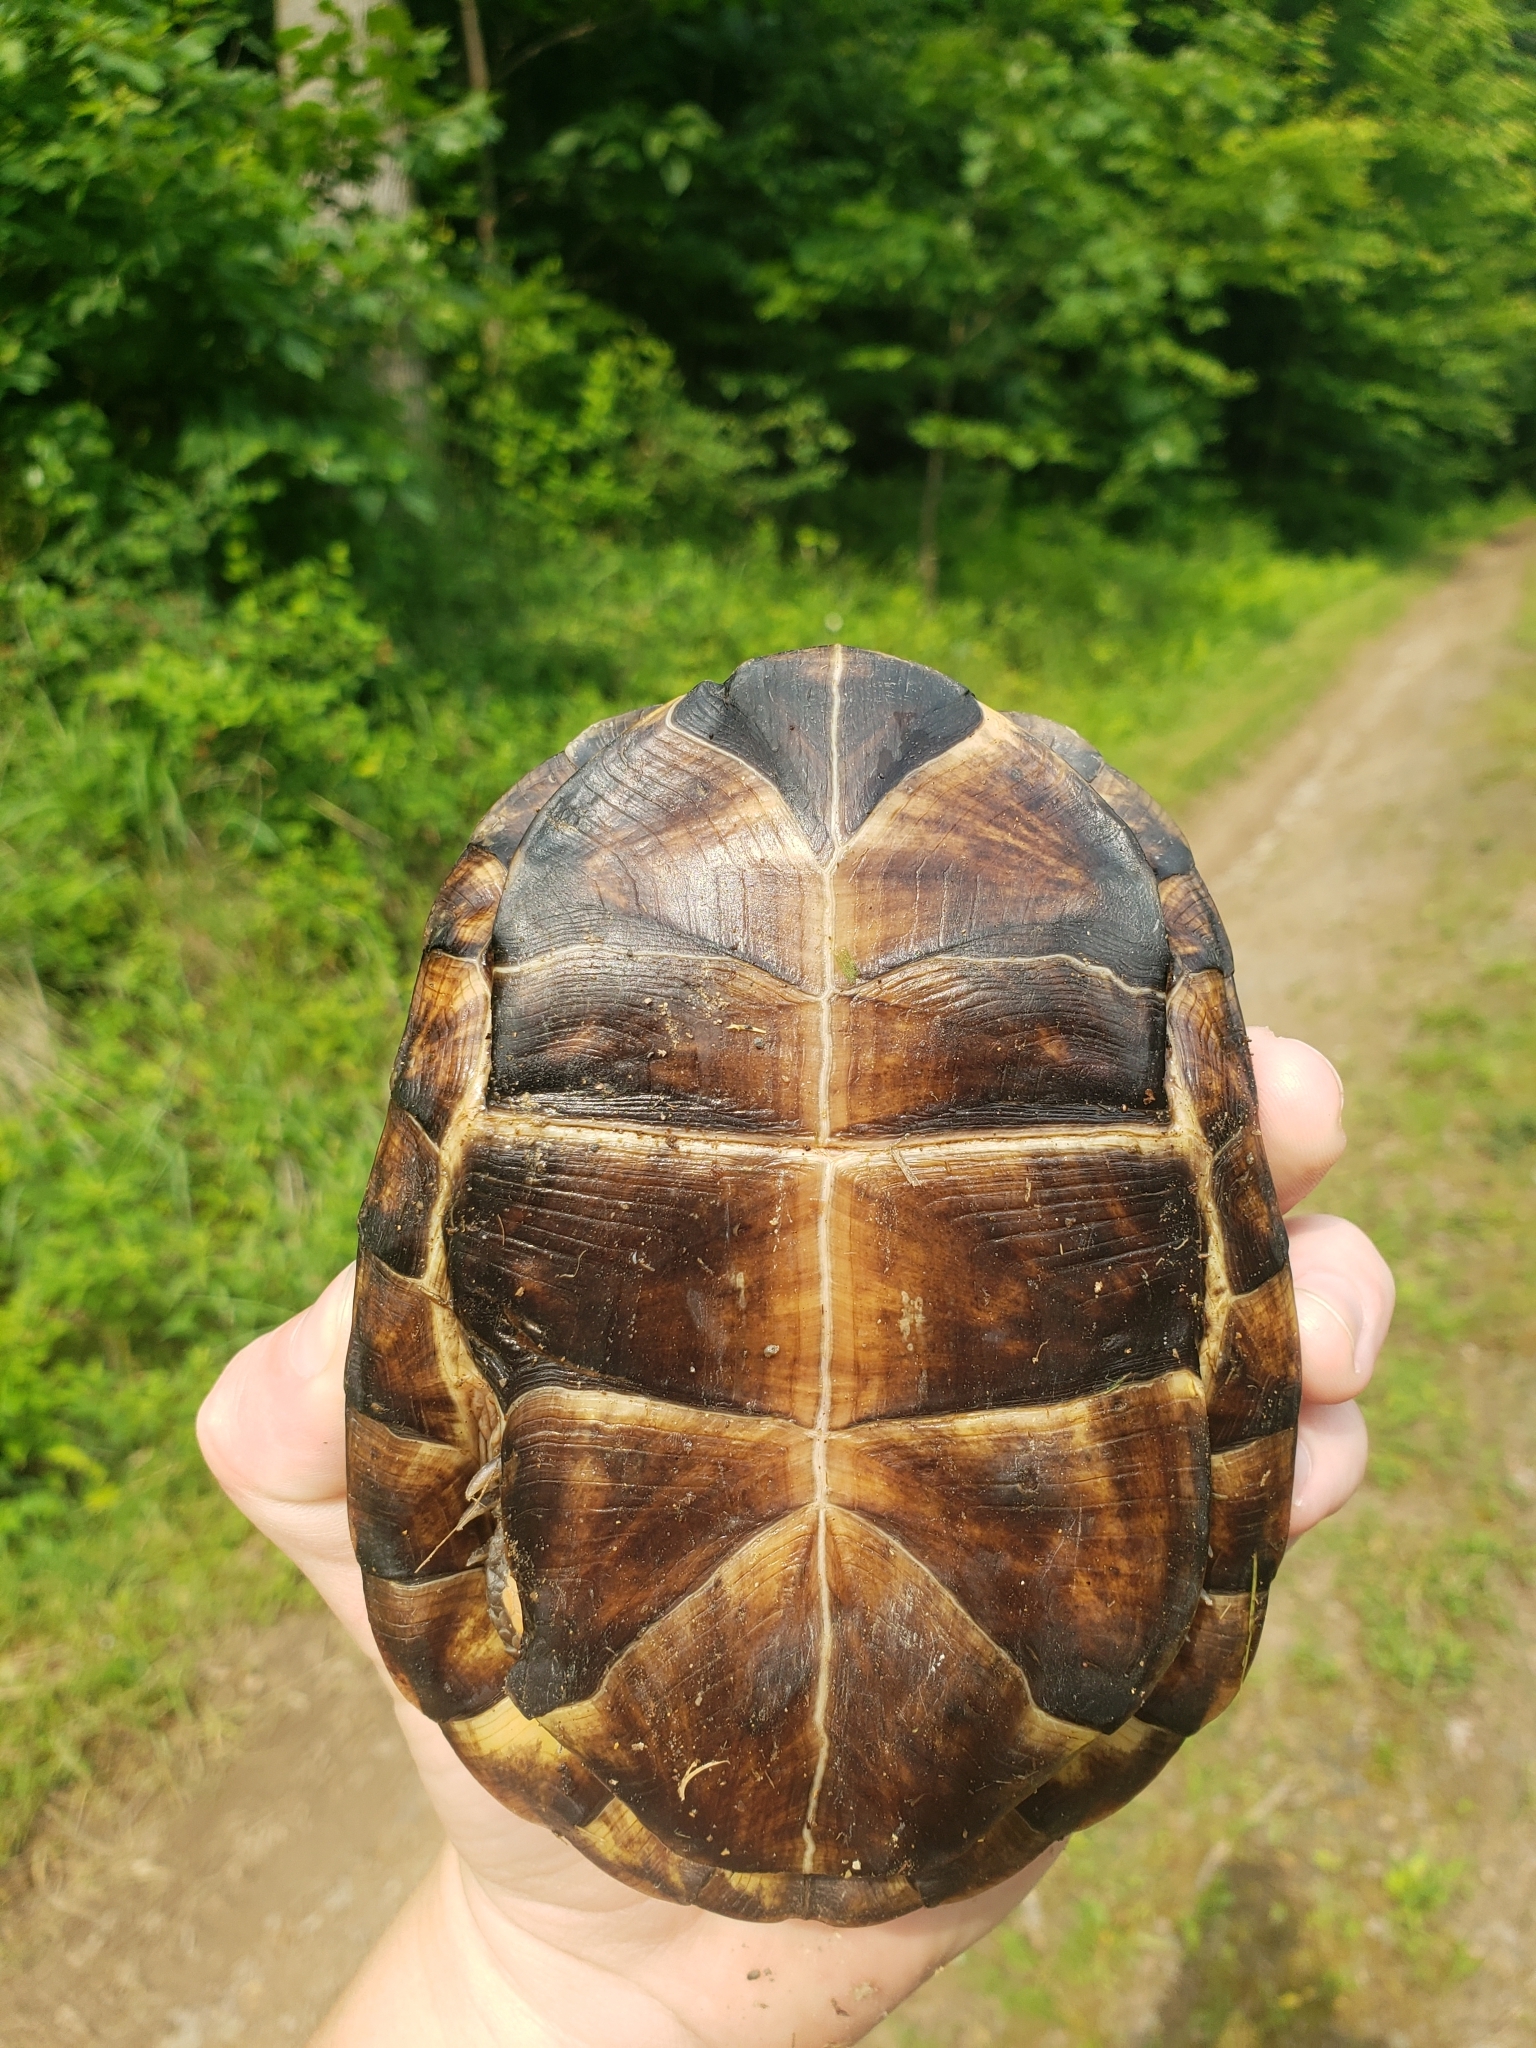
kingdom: Animalia
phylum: Chordata
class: Testudines
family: Emydidae
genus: Terrapene
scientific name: Terrapene carolina
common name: Common box turtle
